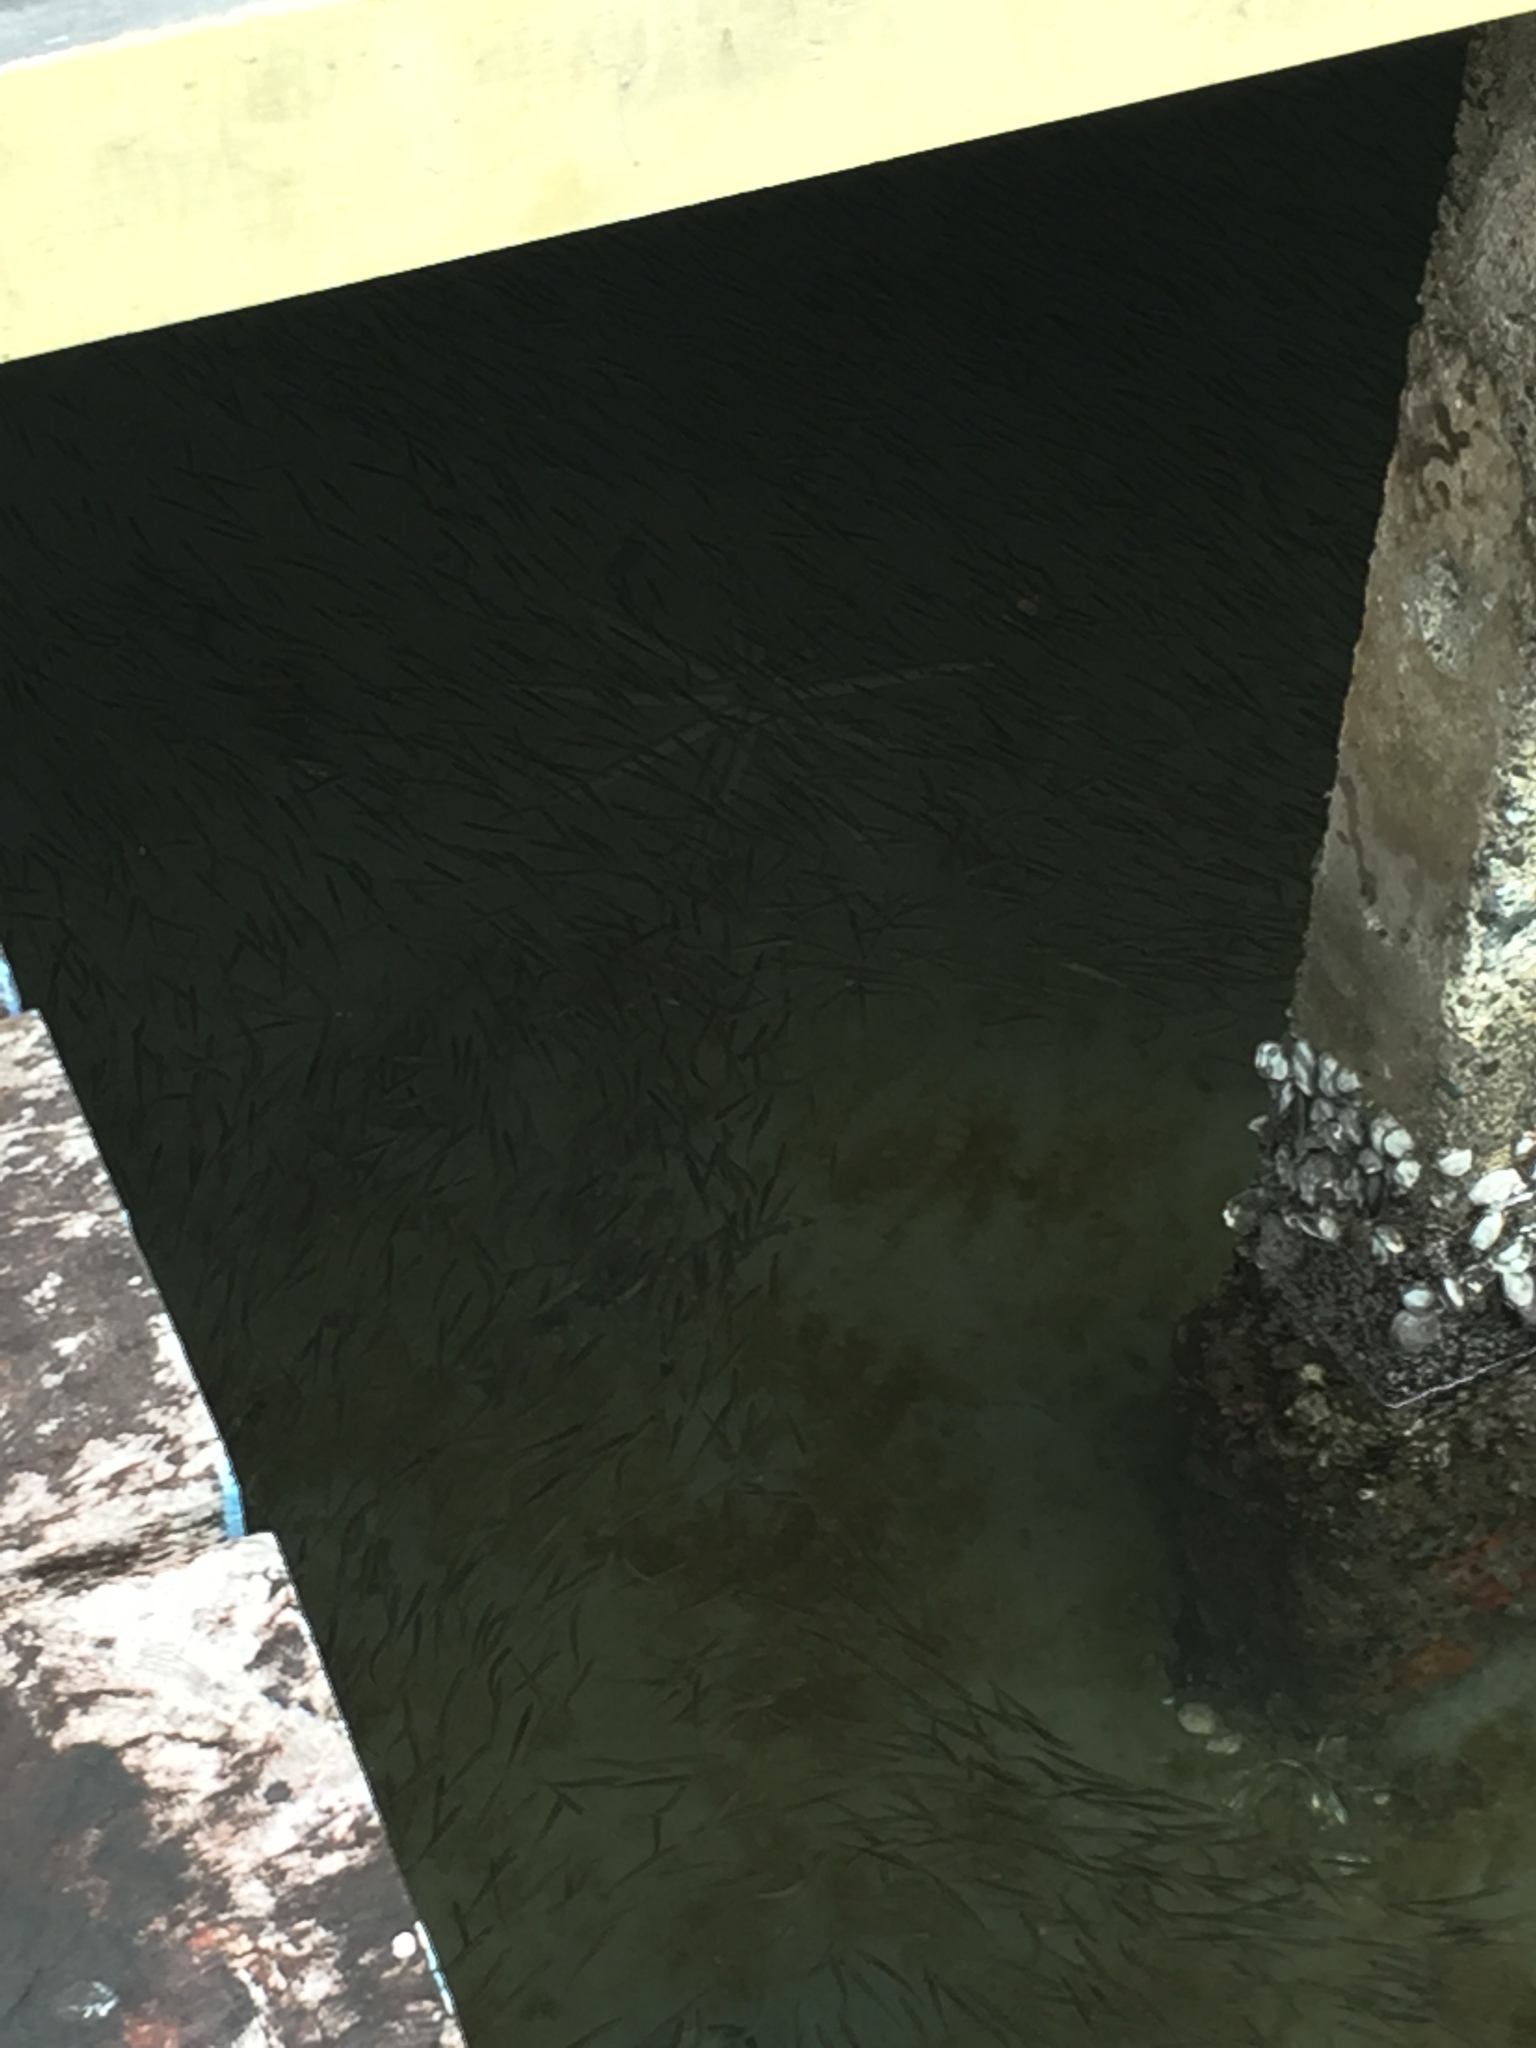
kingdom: Animalia
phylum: Echinodermata
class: Asteroidea
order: Paxillosida
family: Luidiidae
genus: Luidia
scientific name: Luidia senegalensis
